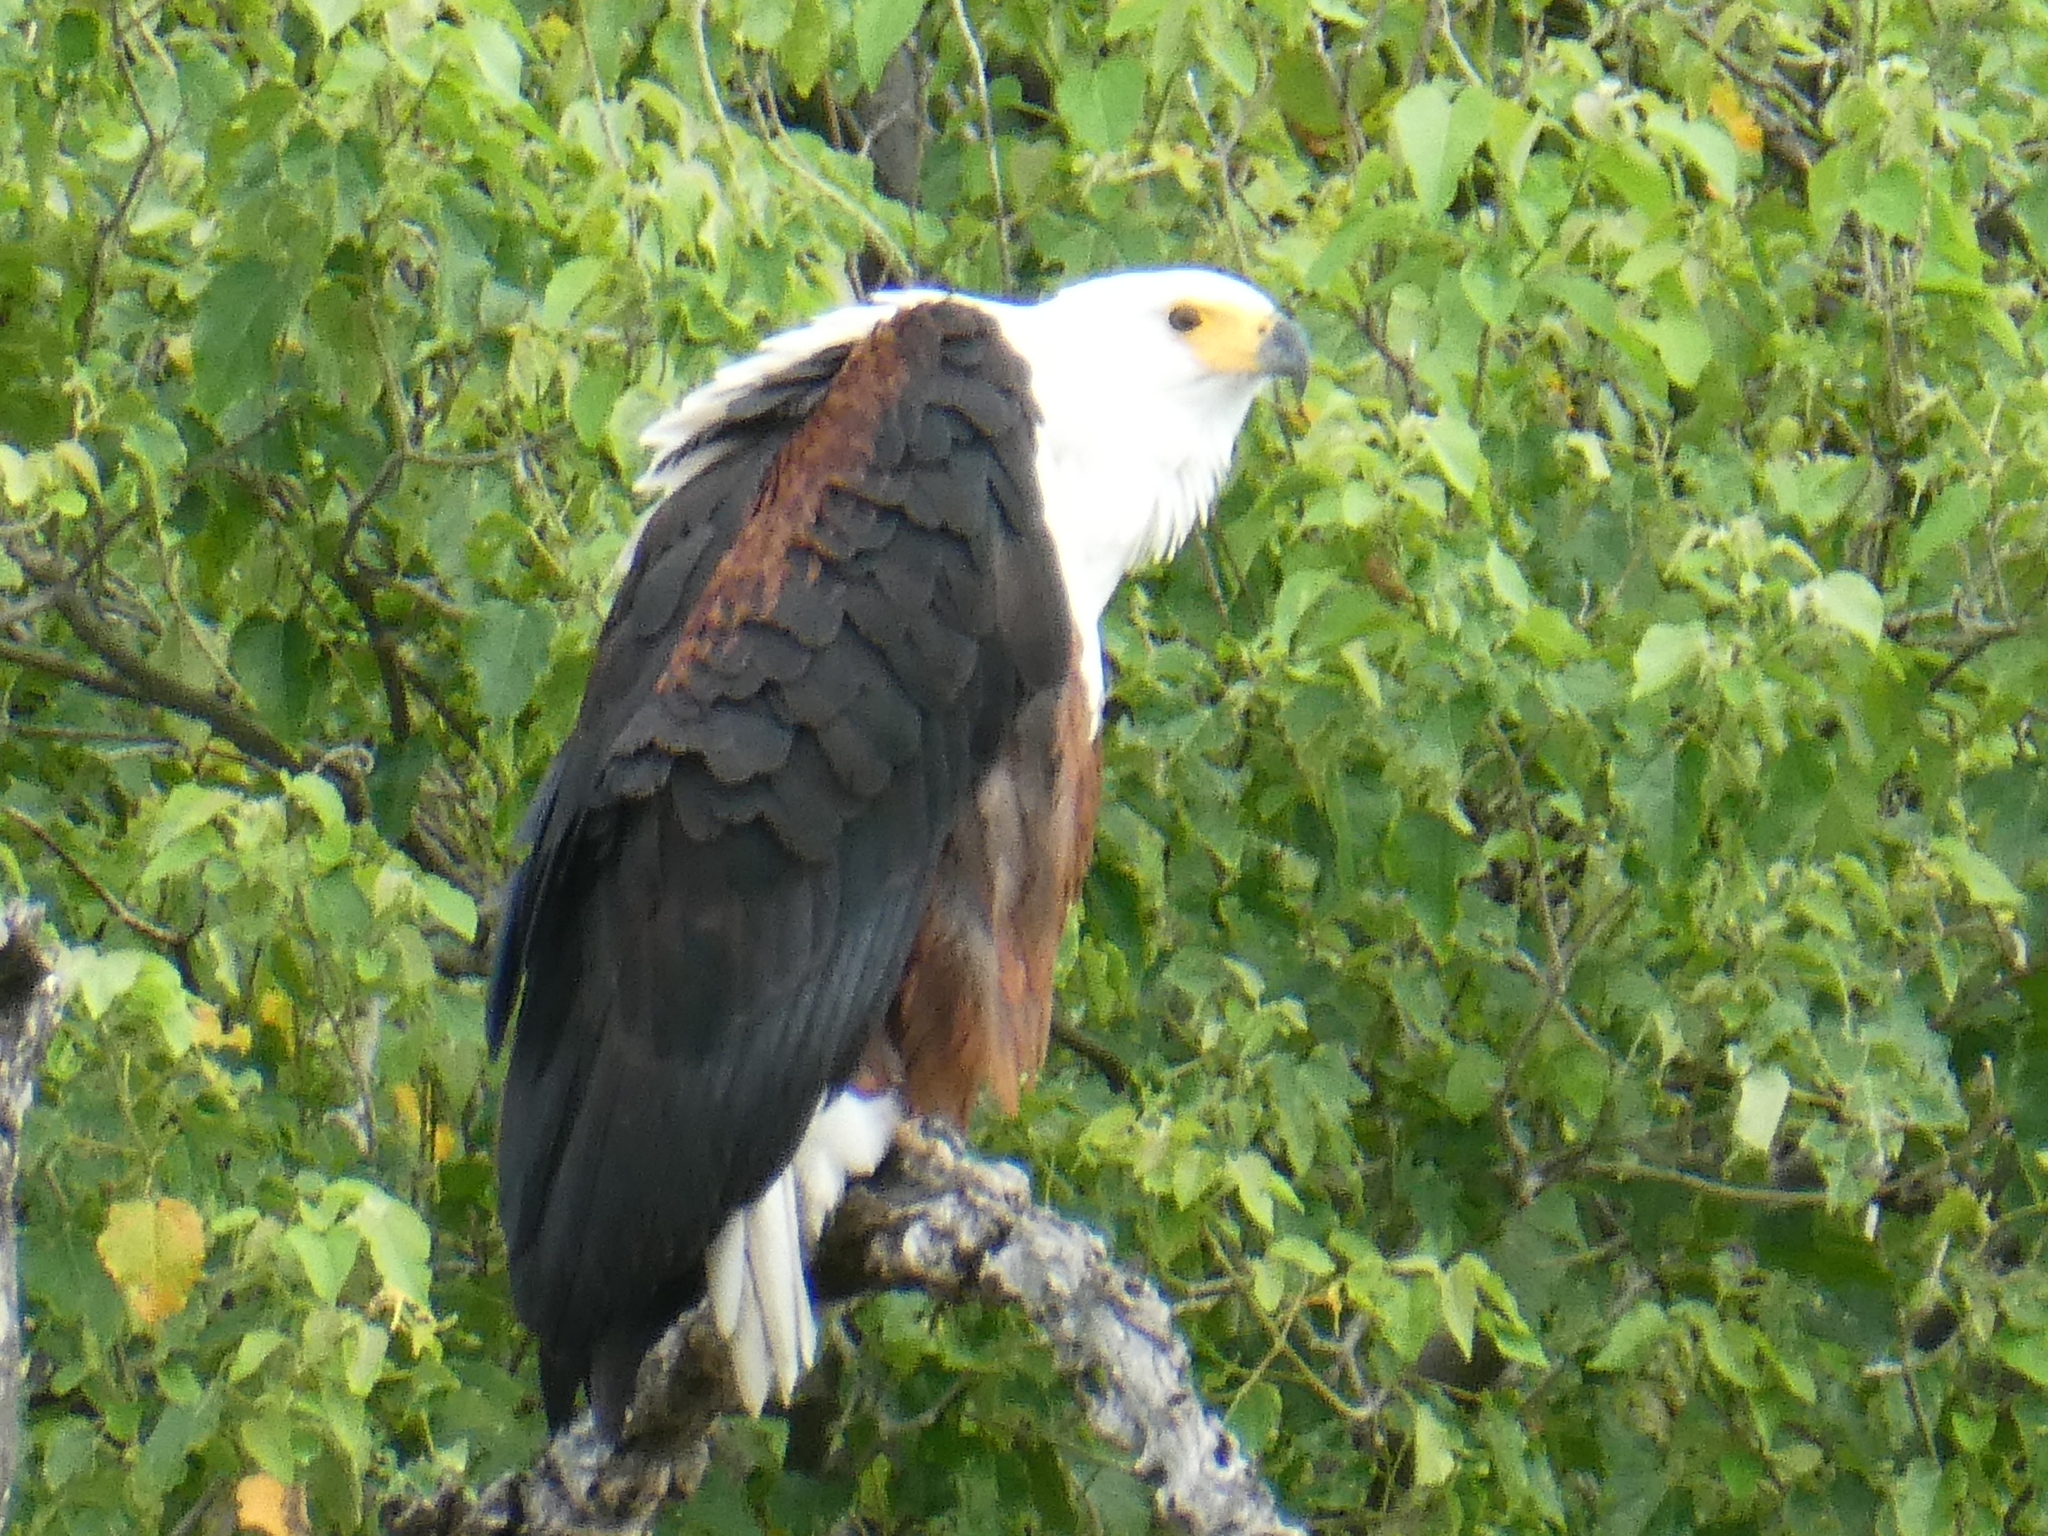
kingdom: Animalia
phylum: Chordata
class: Aves
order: Accipitriformes
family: Accipitridae
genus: Haliaeetus
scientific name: Haliaeetus vocifer
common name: African fish eagle
